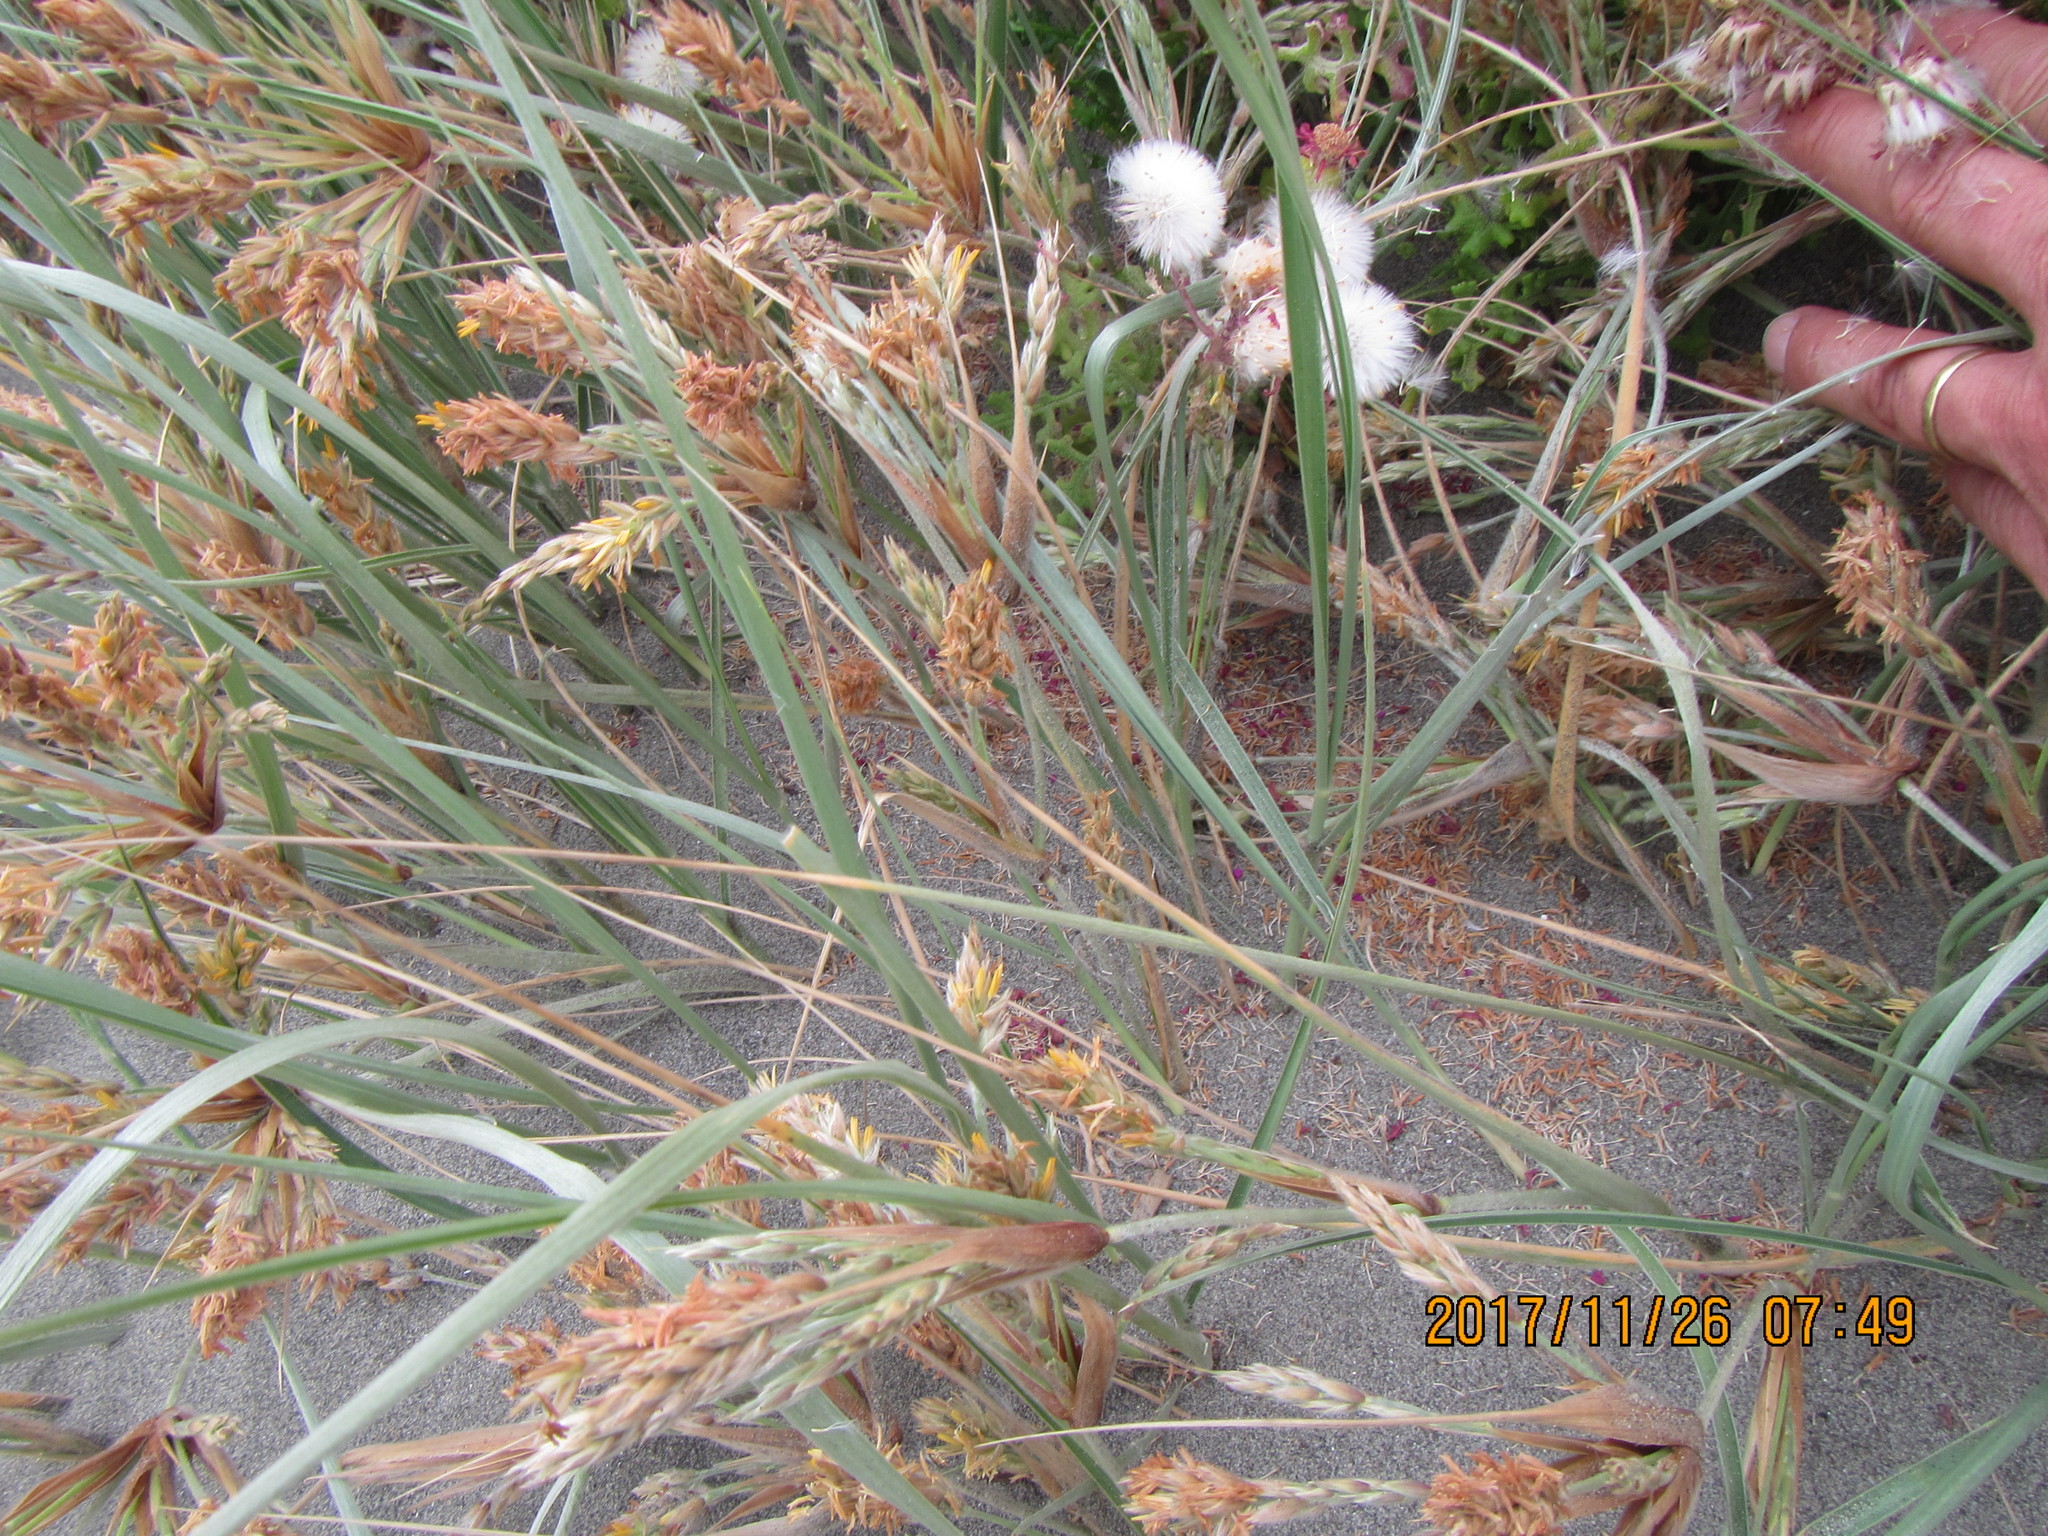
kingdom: Plantae
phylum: Tracheophyta
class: Liliopsida
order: Poales
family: Poaceae
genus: Spinifex
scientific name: Spinifex sericeus
